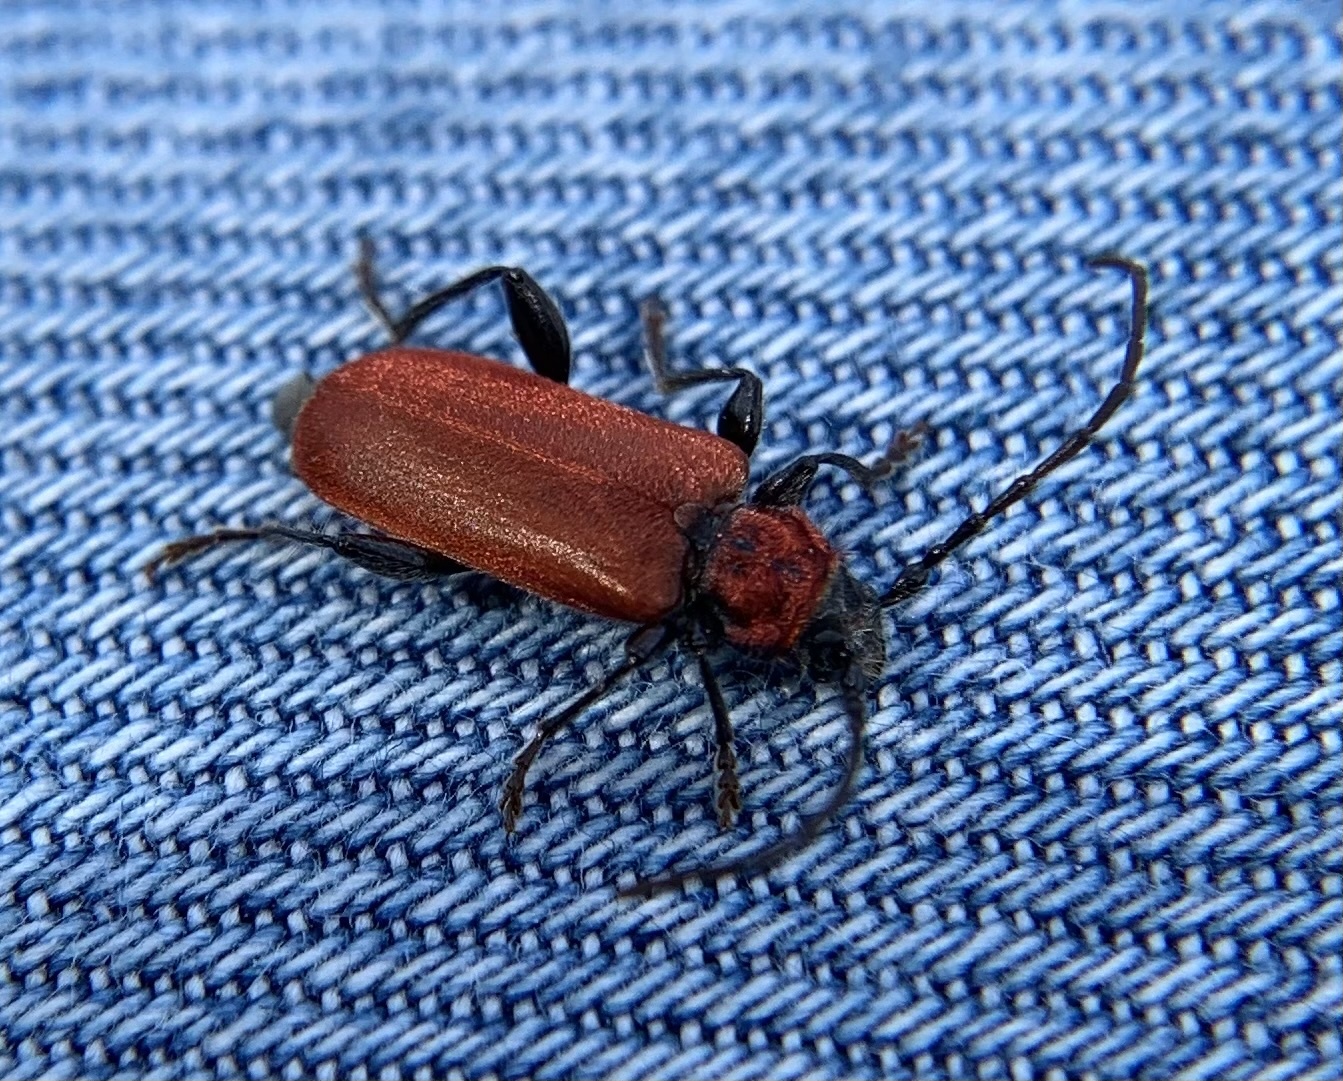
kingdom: Animalia
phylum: Arthropoda
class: Insecta
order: Coleoptera
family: Cerambycidae
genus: Pyrrhidium
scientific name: Pyrrhidium sanguineum
